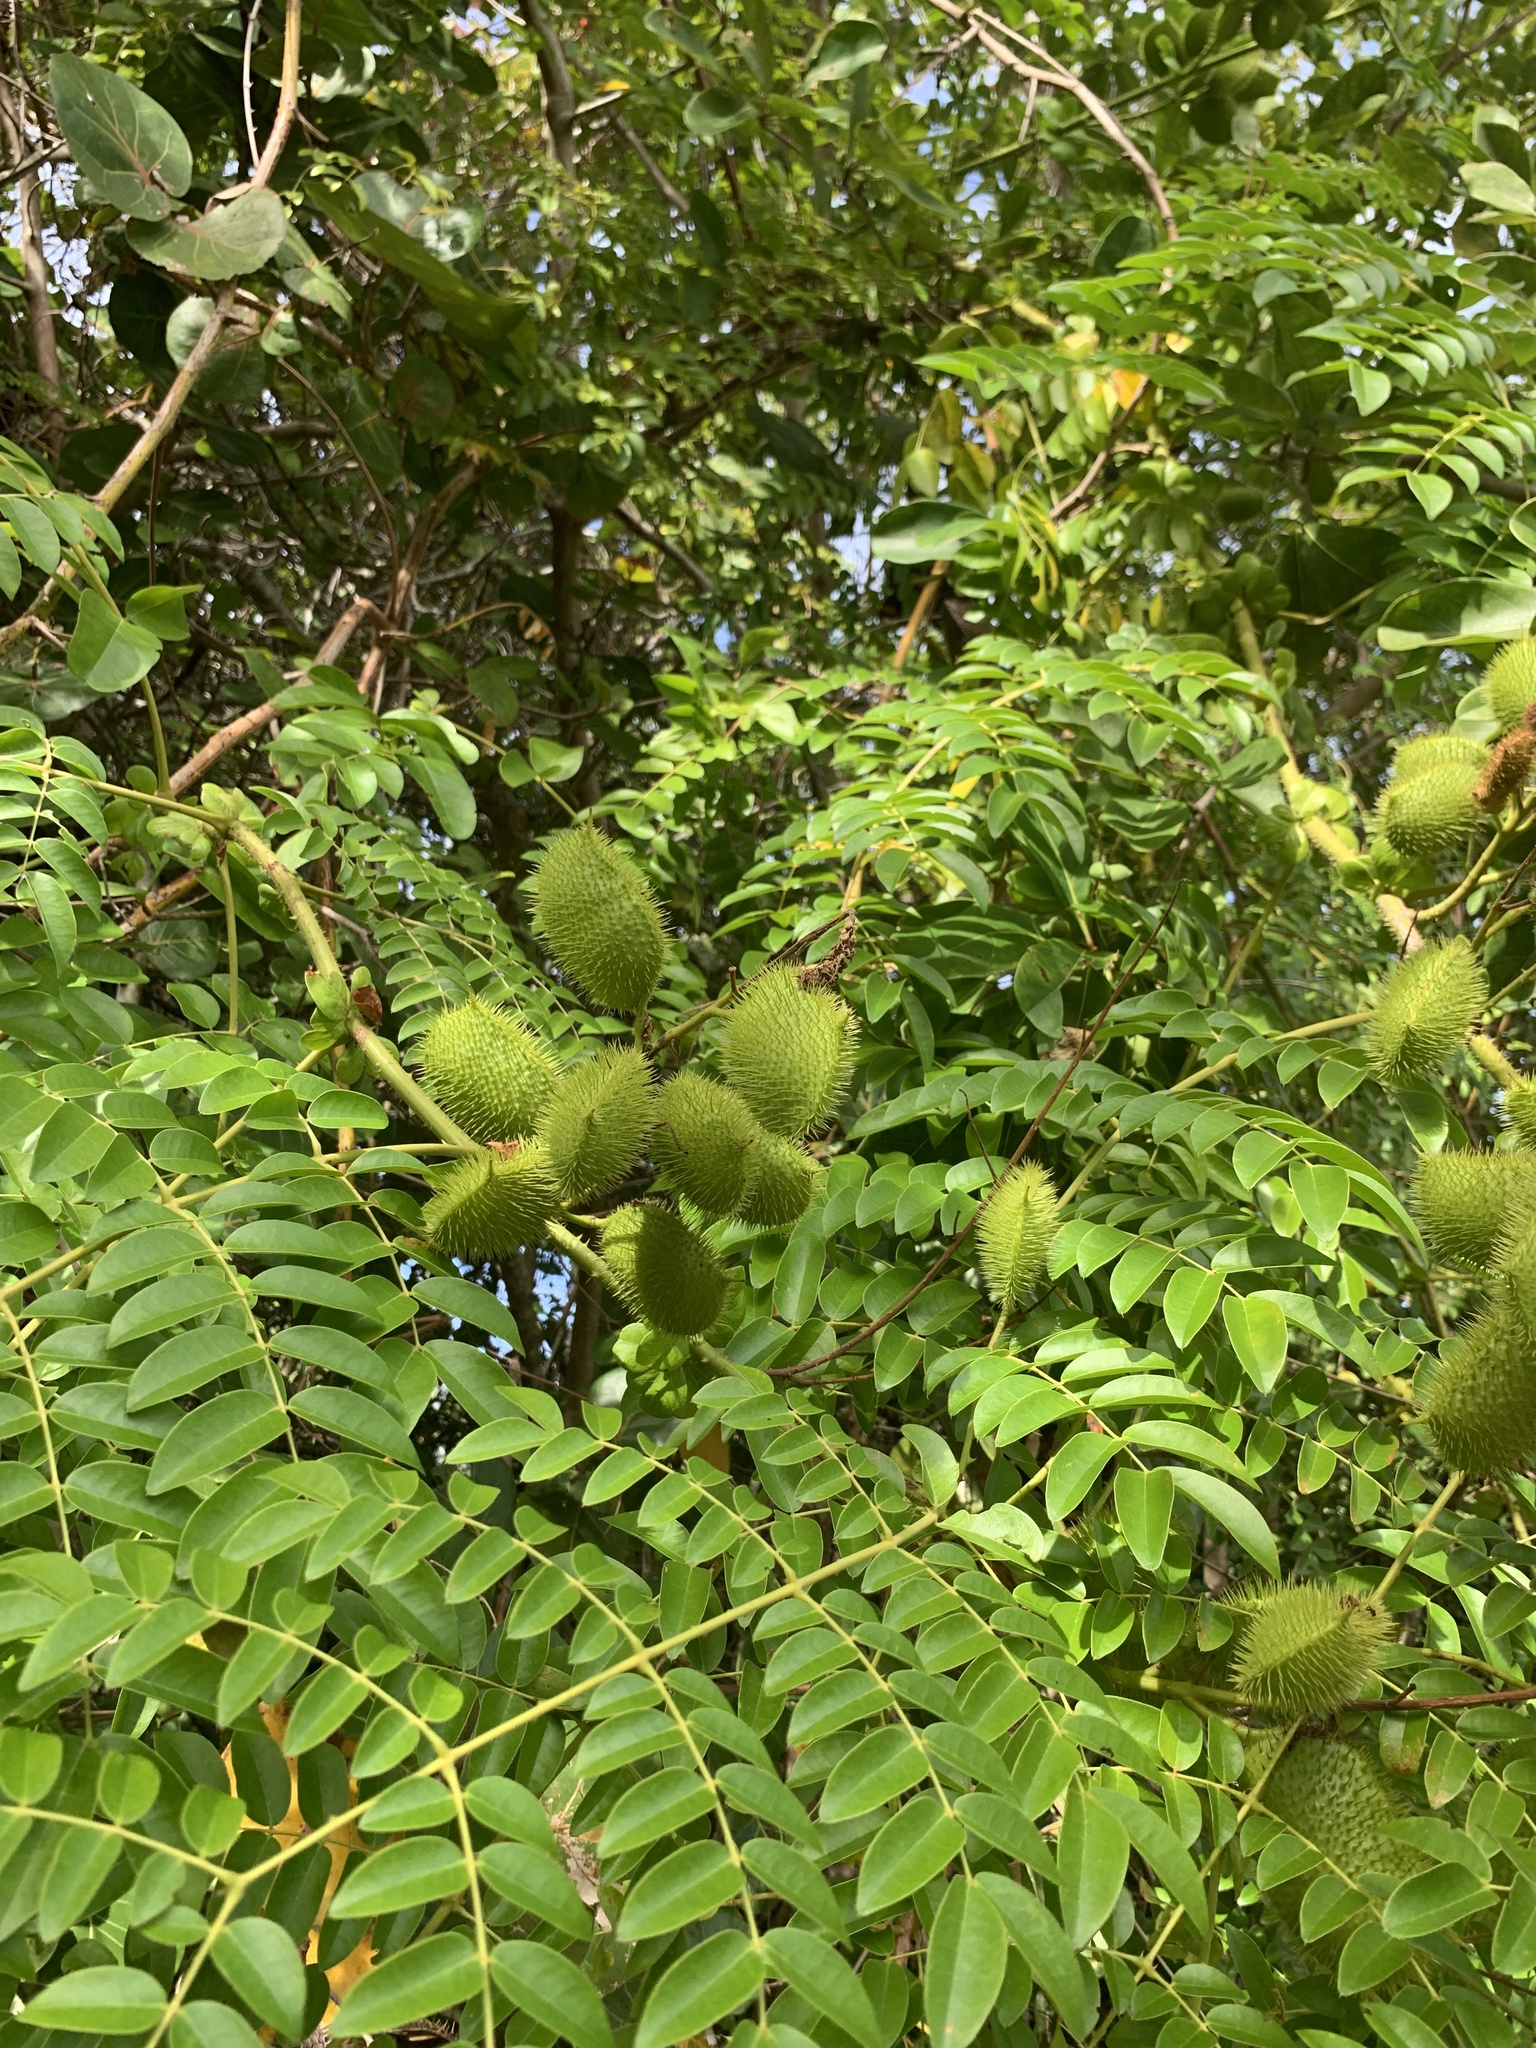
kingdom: Plantae
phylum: Tracheophyta
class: Magnoliopsida
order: Fabales
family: Fabaceae
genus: Guilandina
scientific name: Guilandina bonduc
